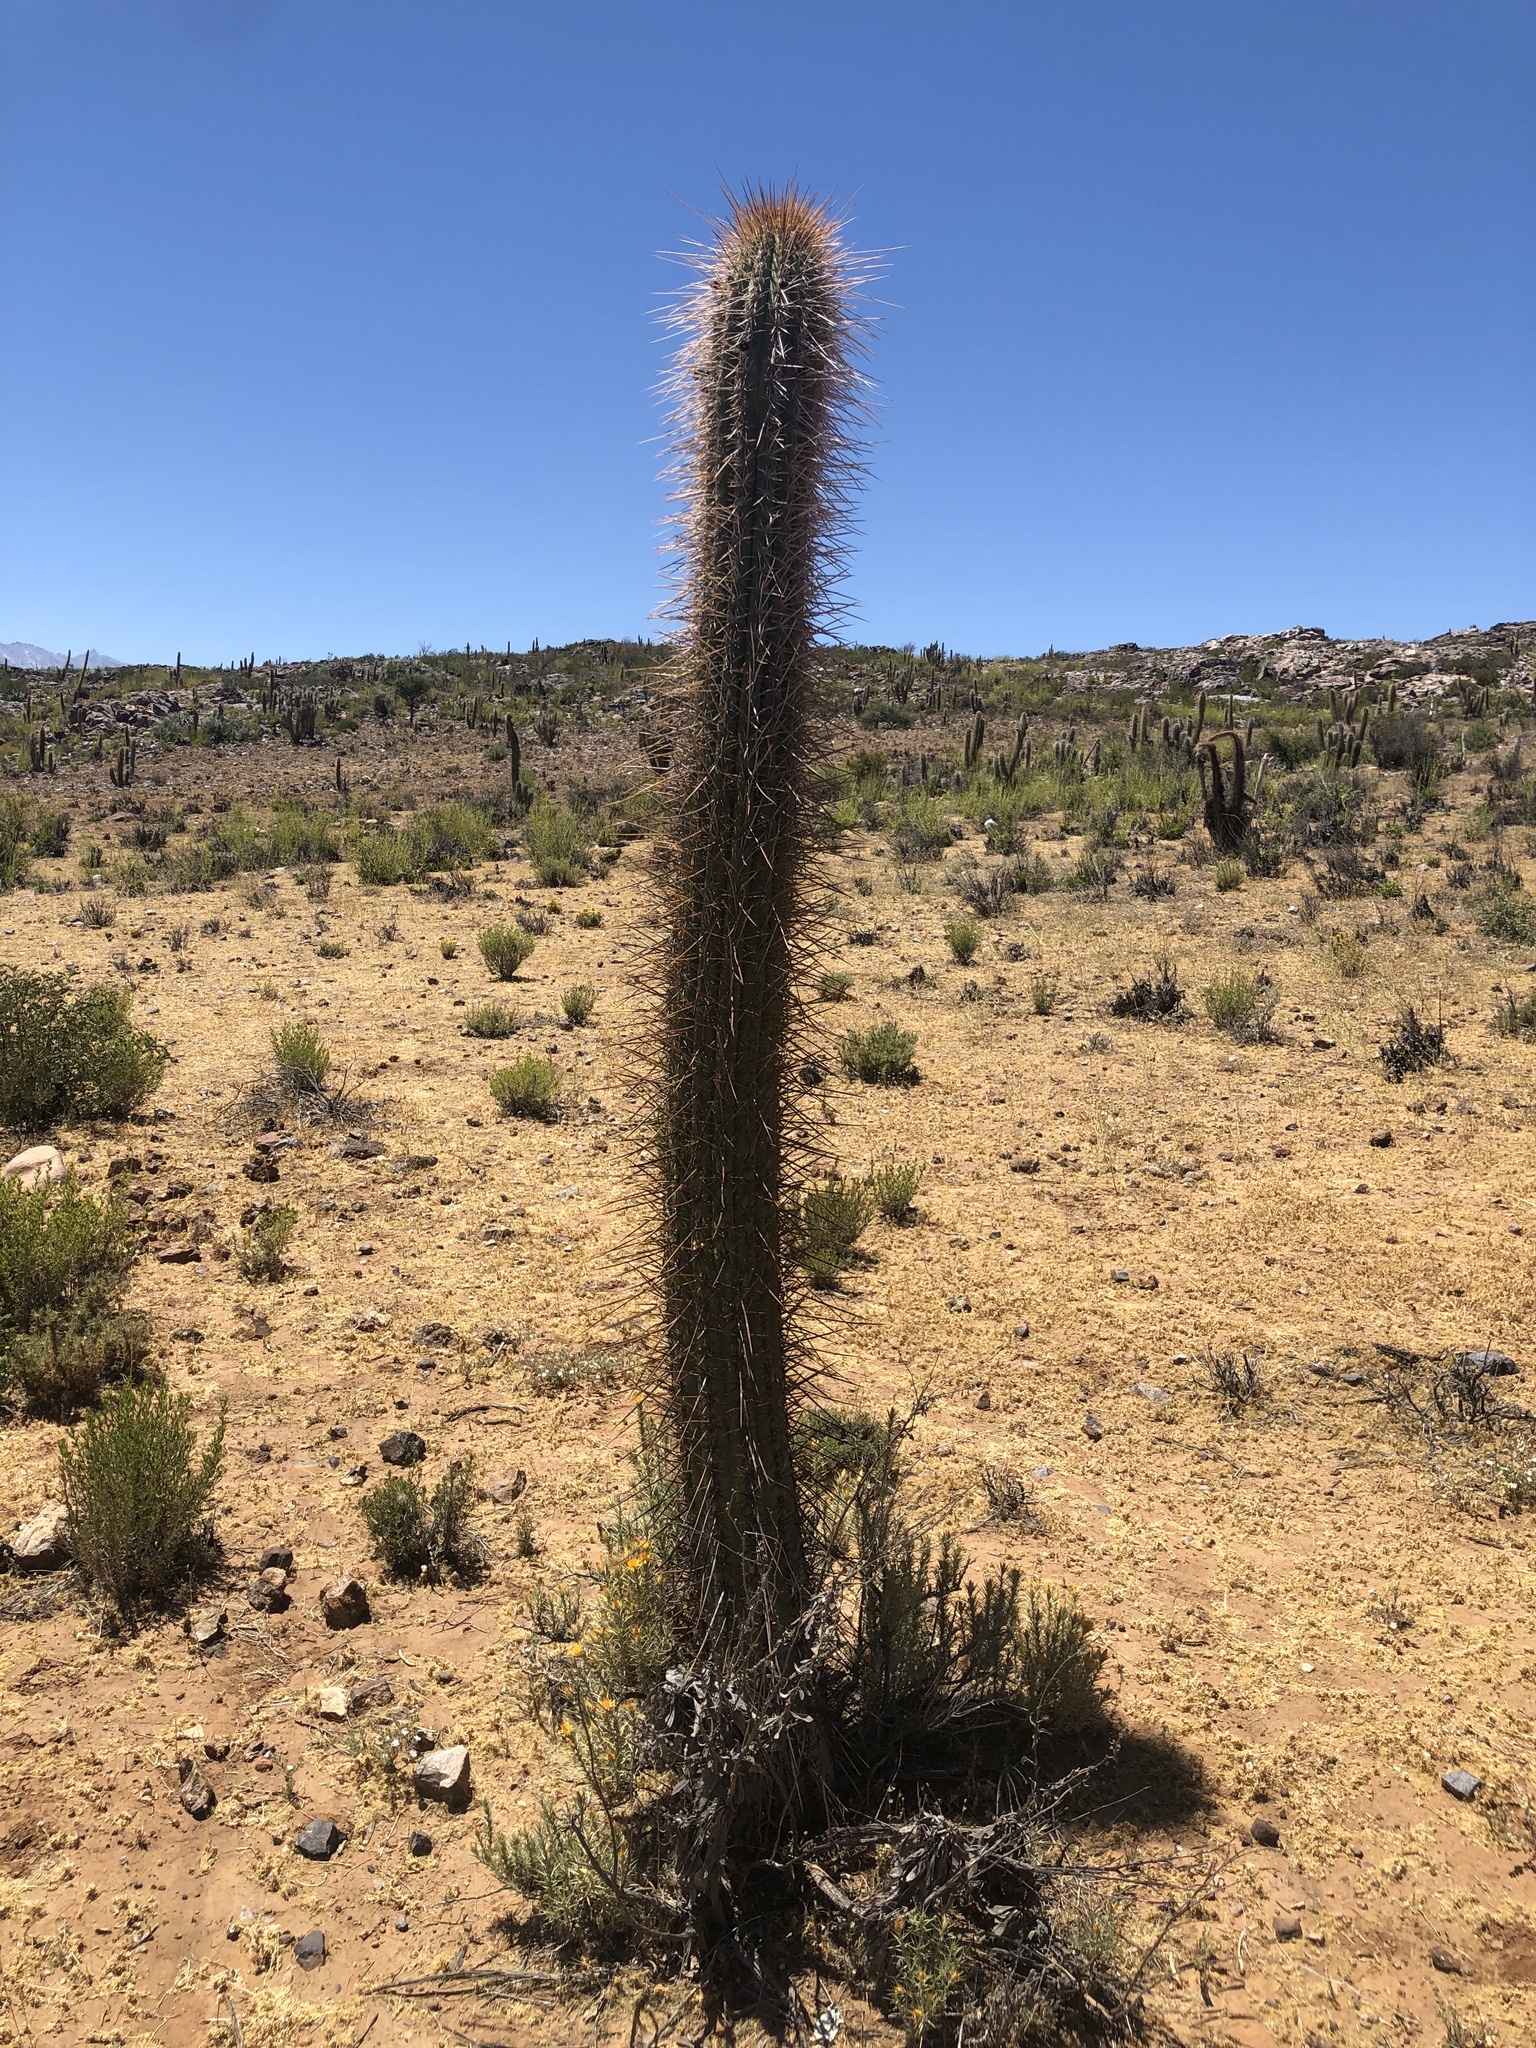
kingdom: Plantae
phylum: Tracheophyta
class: Magnoliopsida
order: Caryophyllales
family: Cactaceae
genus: Leucostele
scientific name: Leucostele chiloensis
